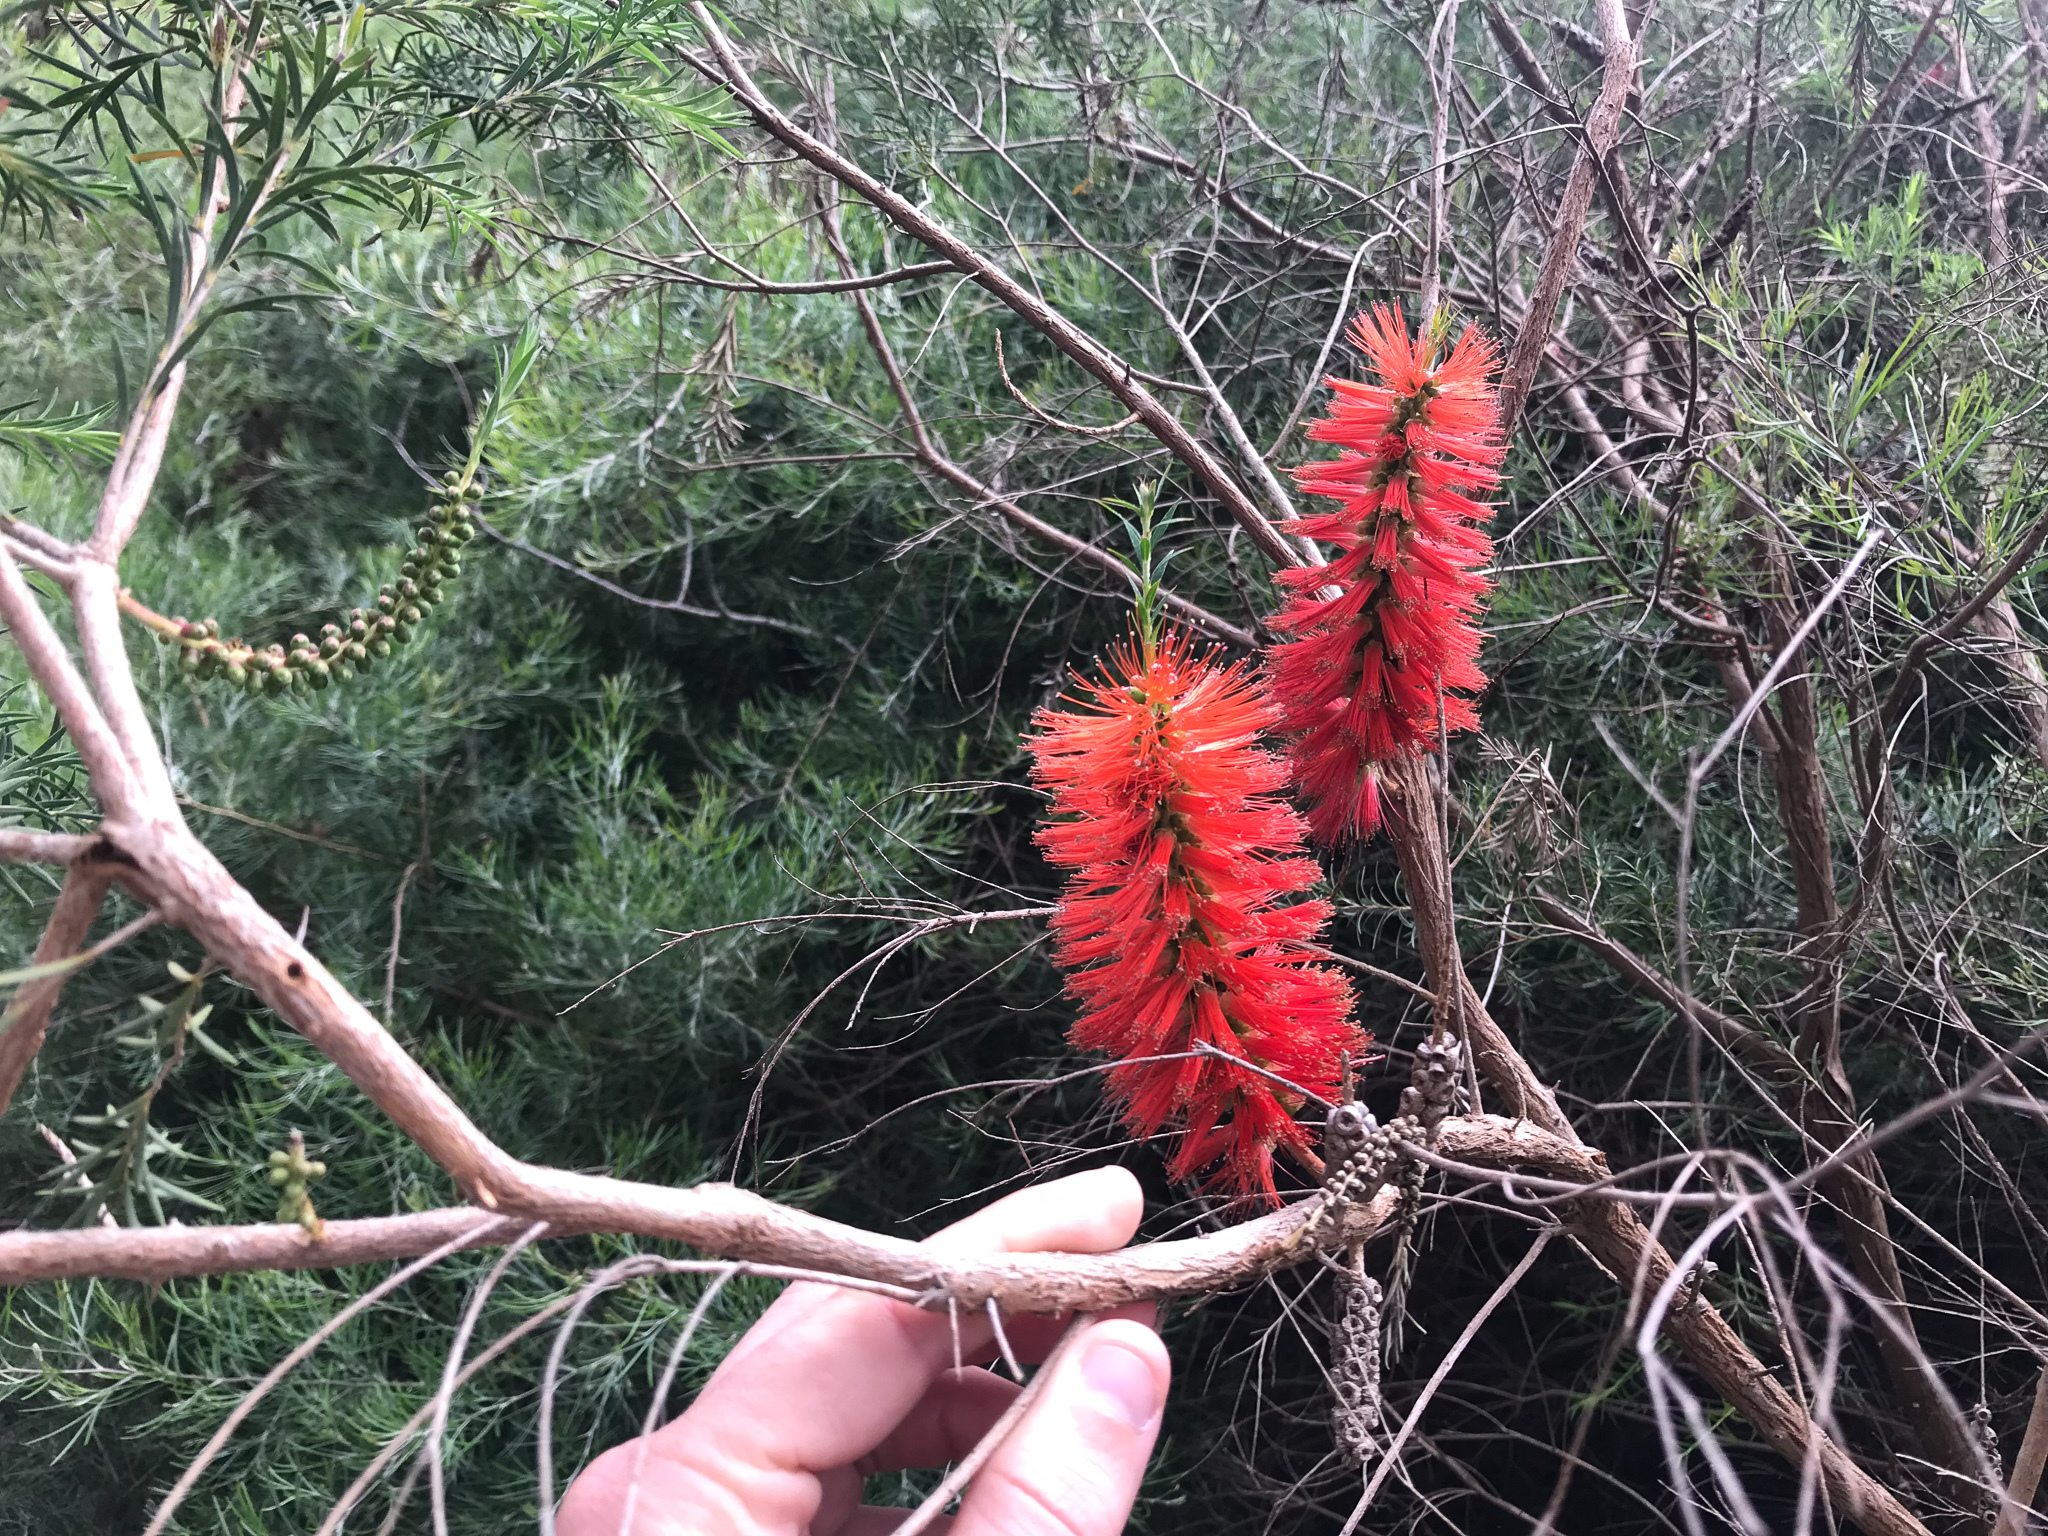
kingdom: Plantae
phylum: Tracheophyta
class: Magnoliopsida
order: Myrtales
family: Myrtaceae
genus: Melaleuca
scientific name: Melaleuca lateritia
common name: Robin red-breast
